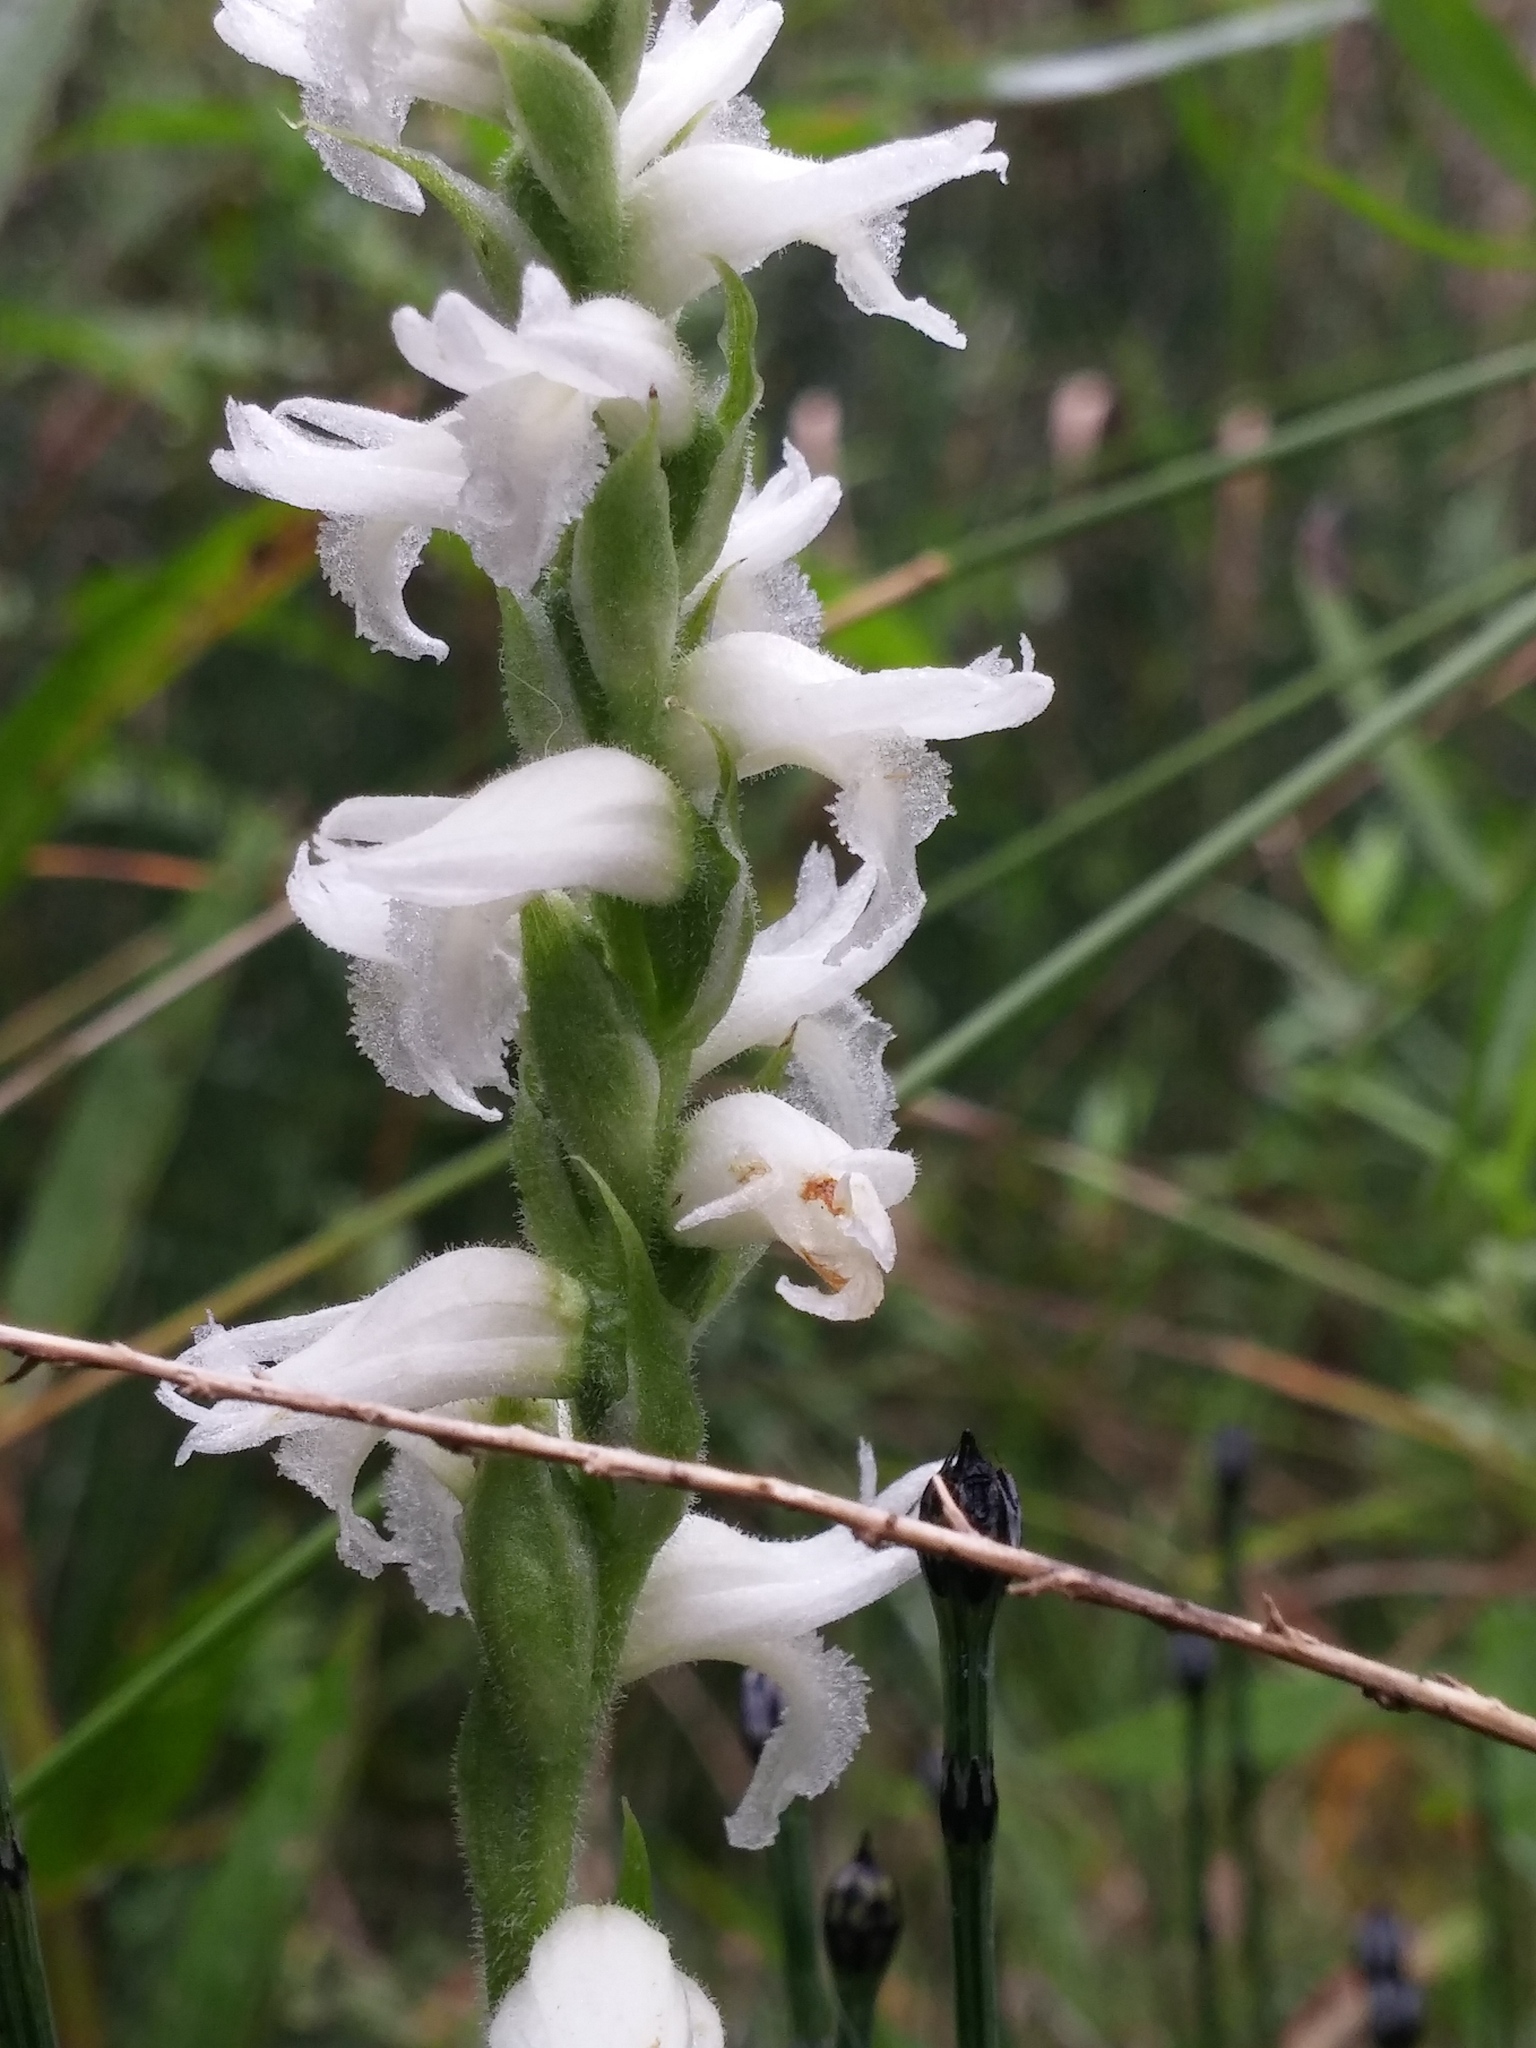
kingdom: Plantae
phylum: Tracheophyta
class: Liliopsida
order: Asparagales
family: Orchidaceae
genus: Spiranthes
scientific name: Spiranthes incurva
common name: Sphinx ladies'-tresses
